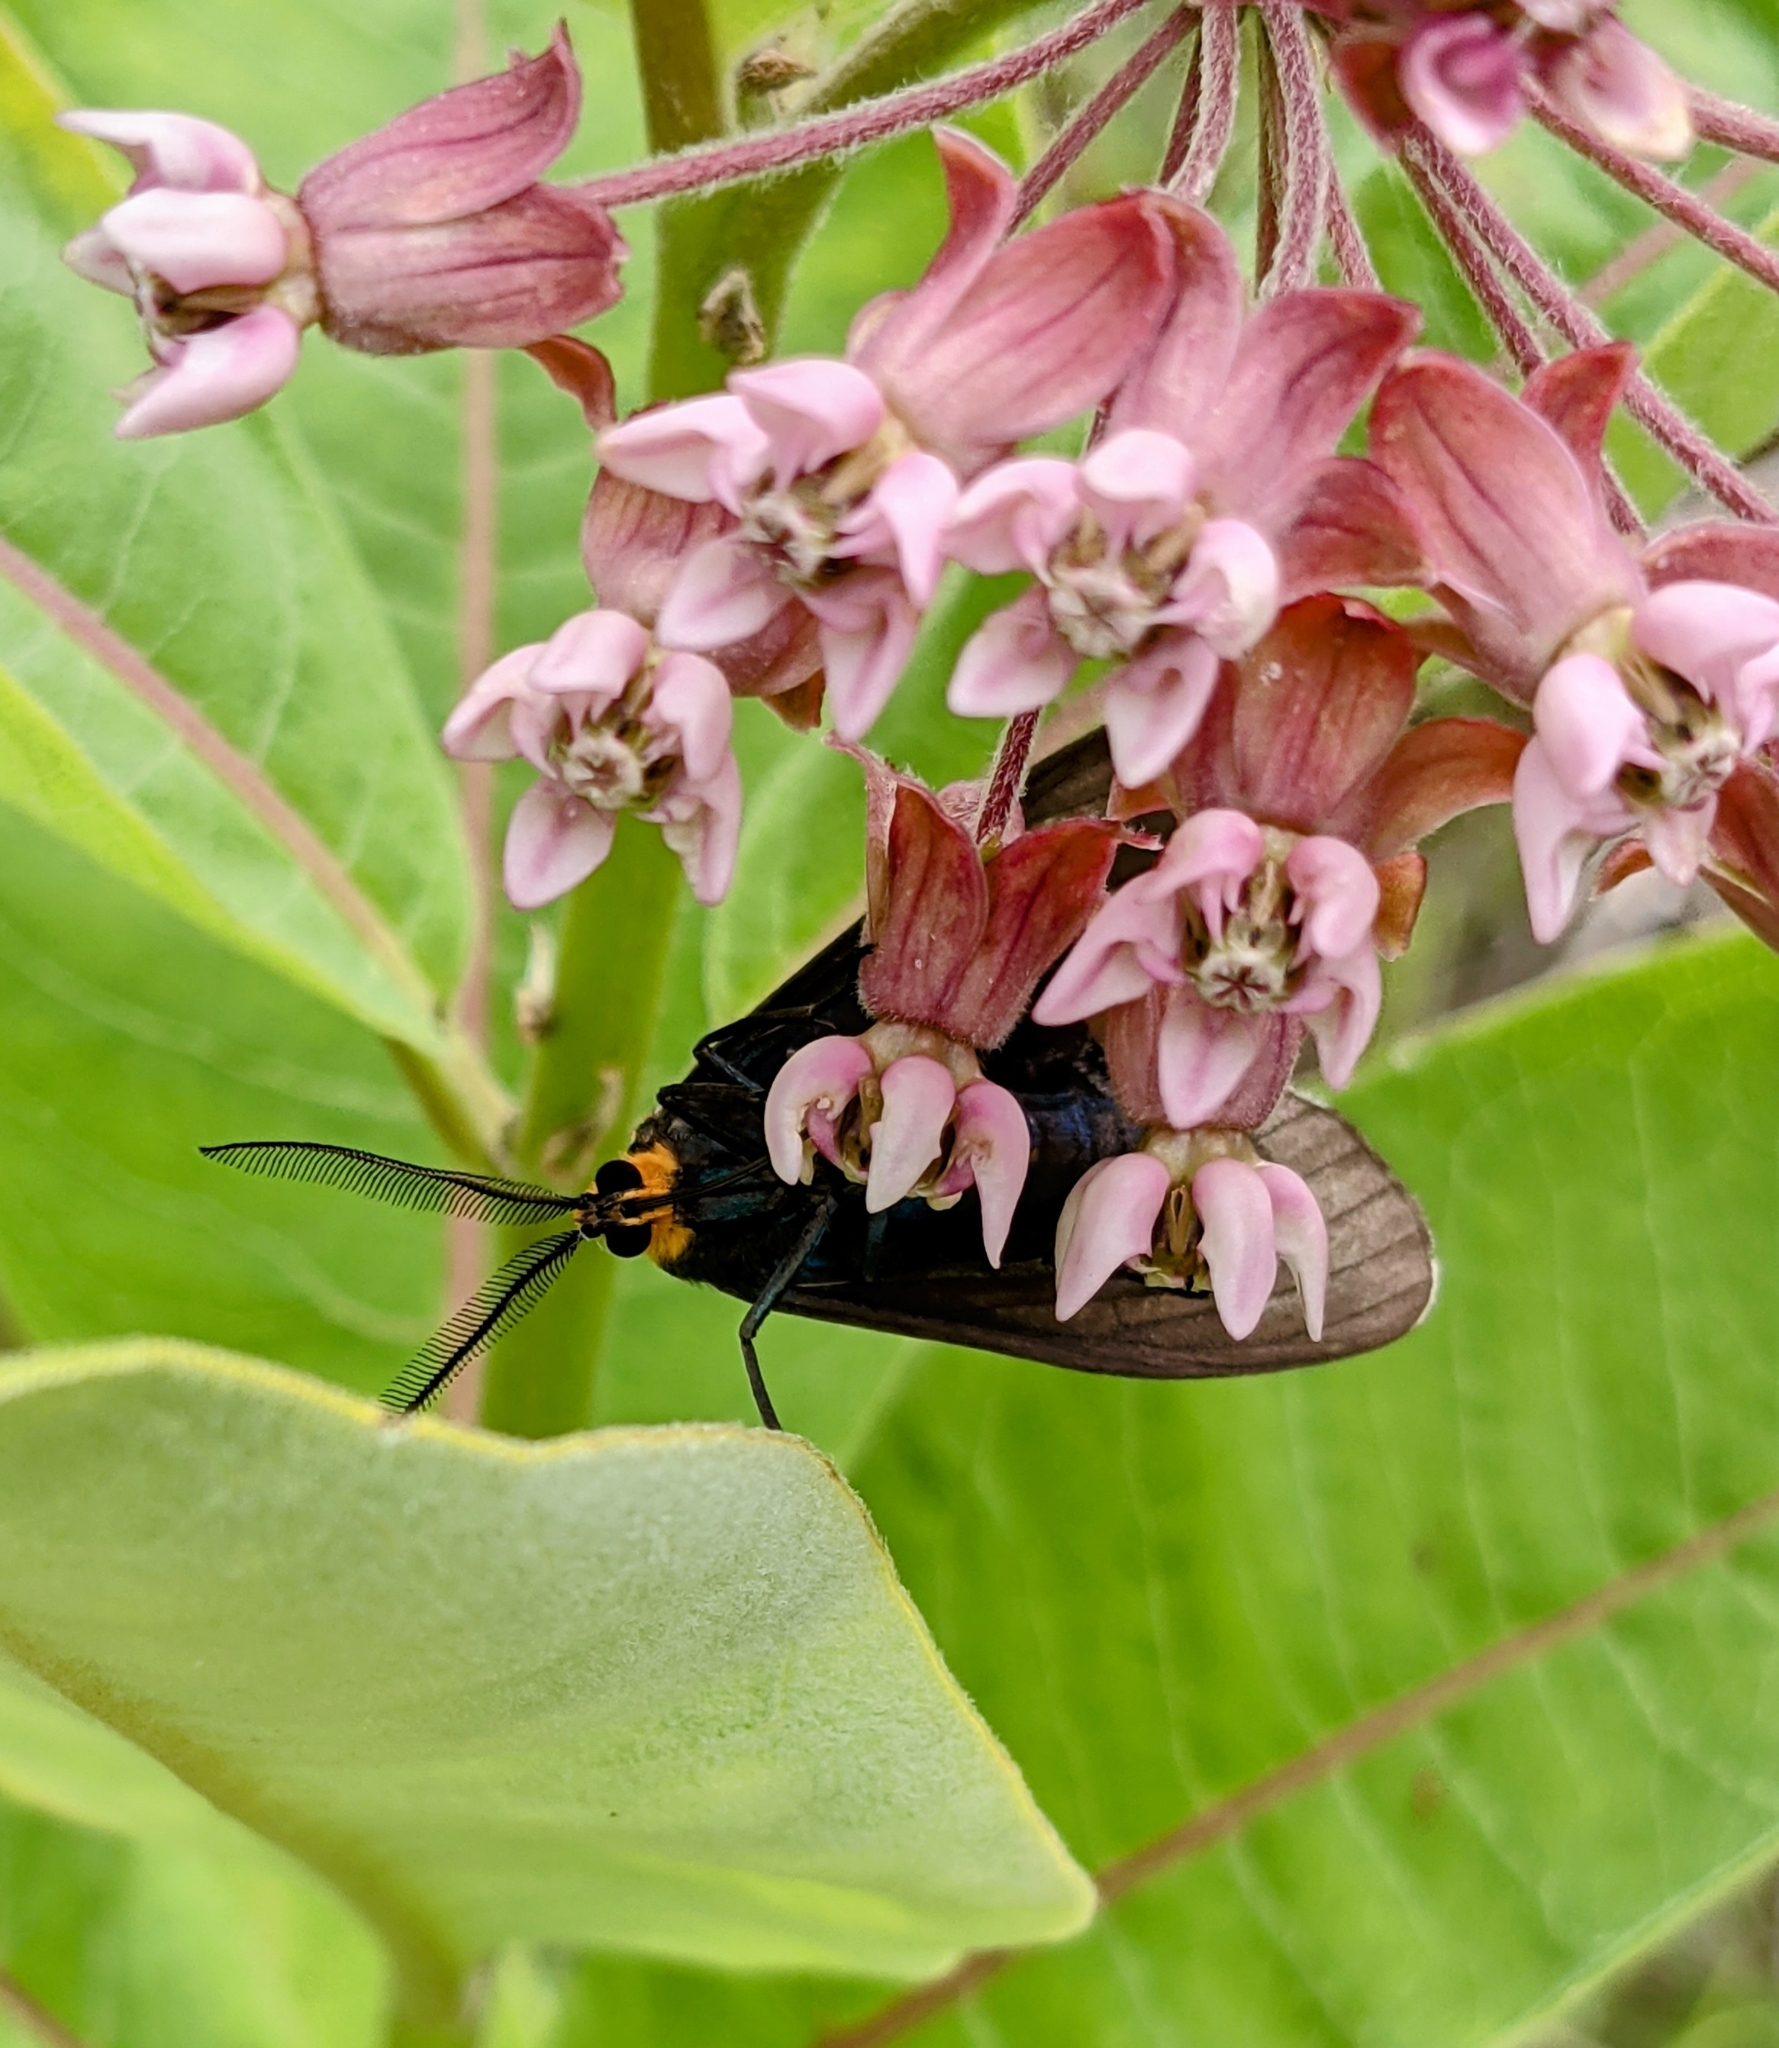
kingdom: Animalia
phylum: Arthropoda
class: Insecta
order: Lepidoptera
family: Erebidae
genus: Ctenucha
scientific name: Ctenucha virginica
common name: Virginia ctenucha moth
